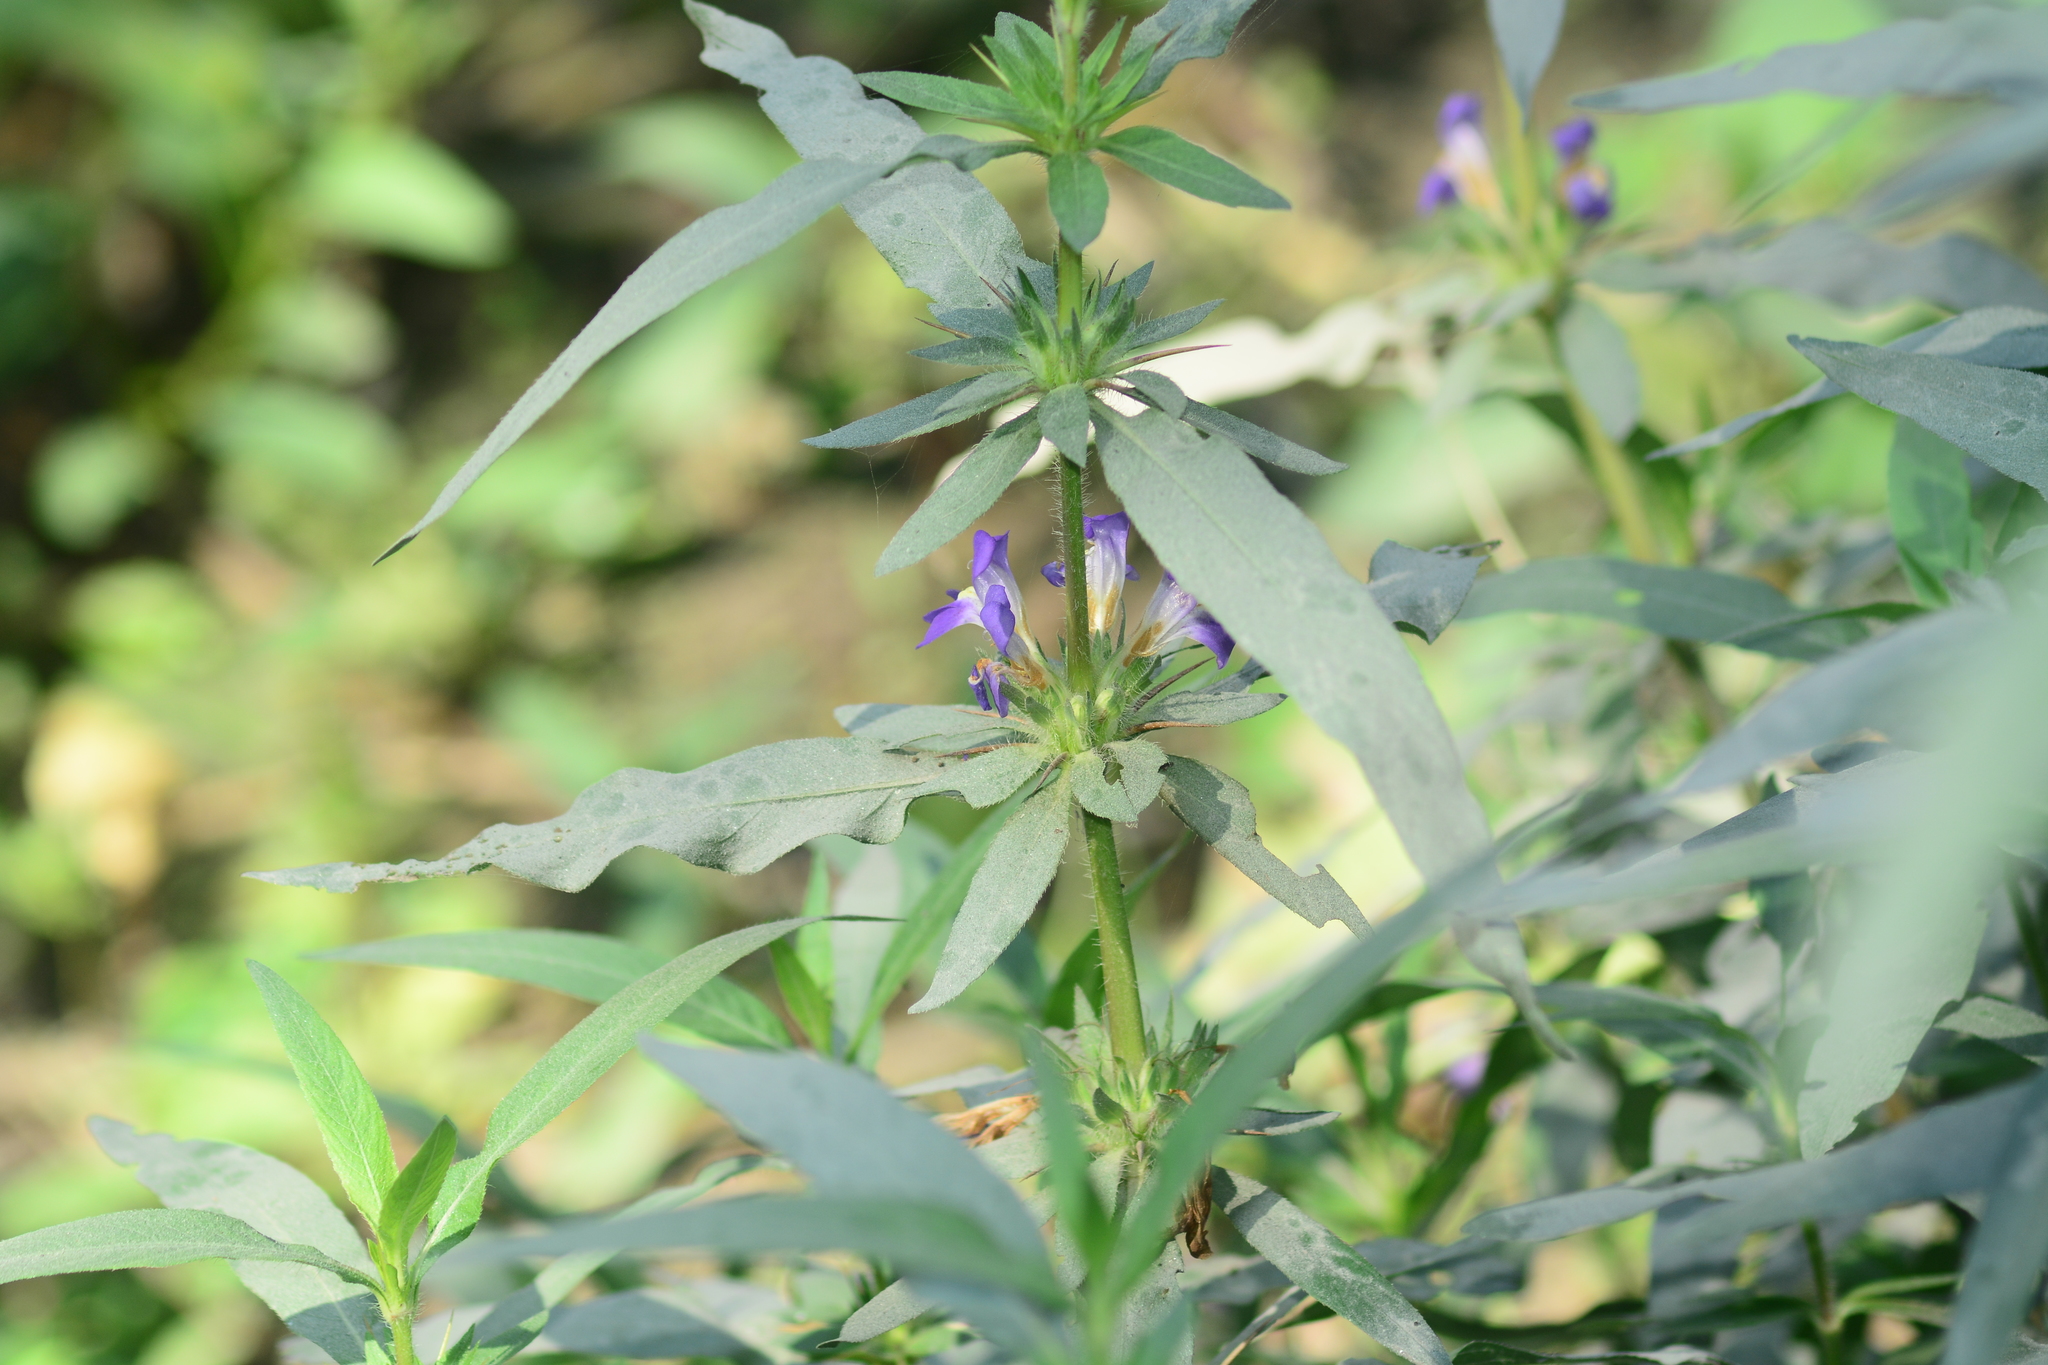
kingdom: Plantae
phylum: Tracheophyta
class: Magnoliopsida
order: Lamiales
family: Acanthaceae
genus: Hygrophila
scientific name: Hygrophila auriculata
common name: Hygrophila
